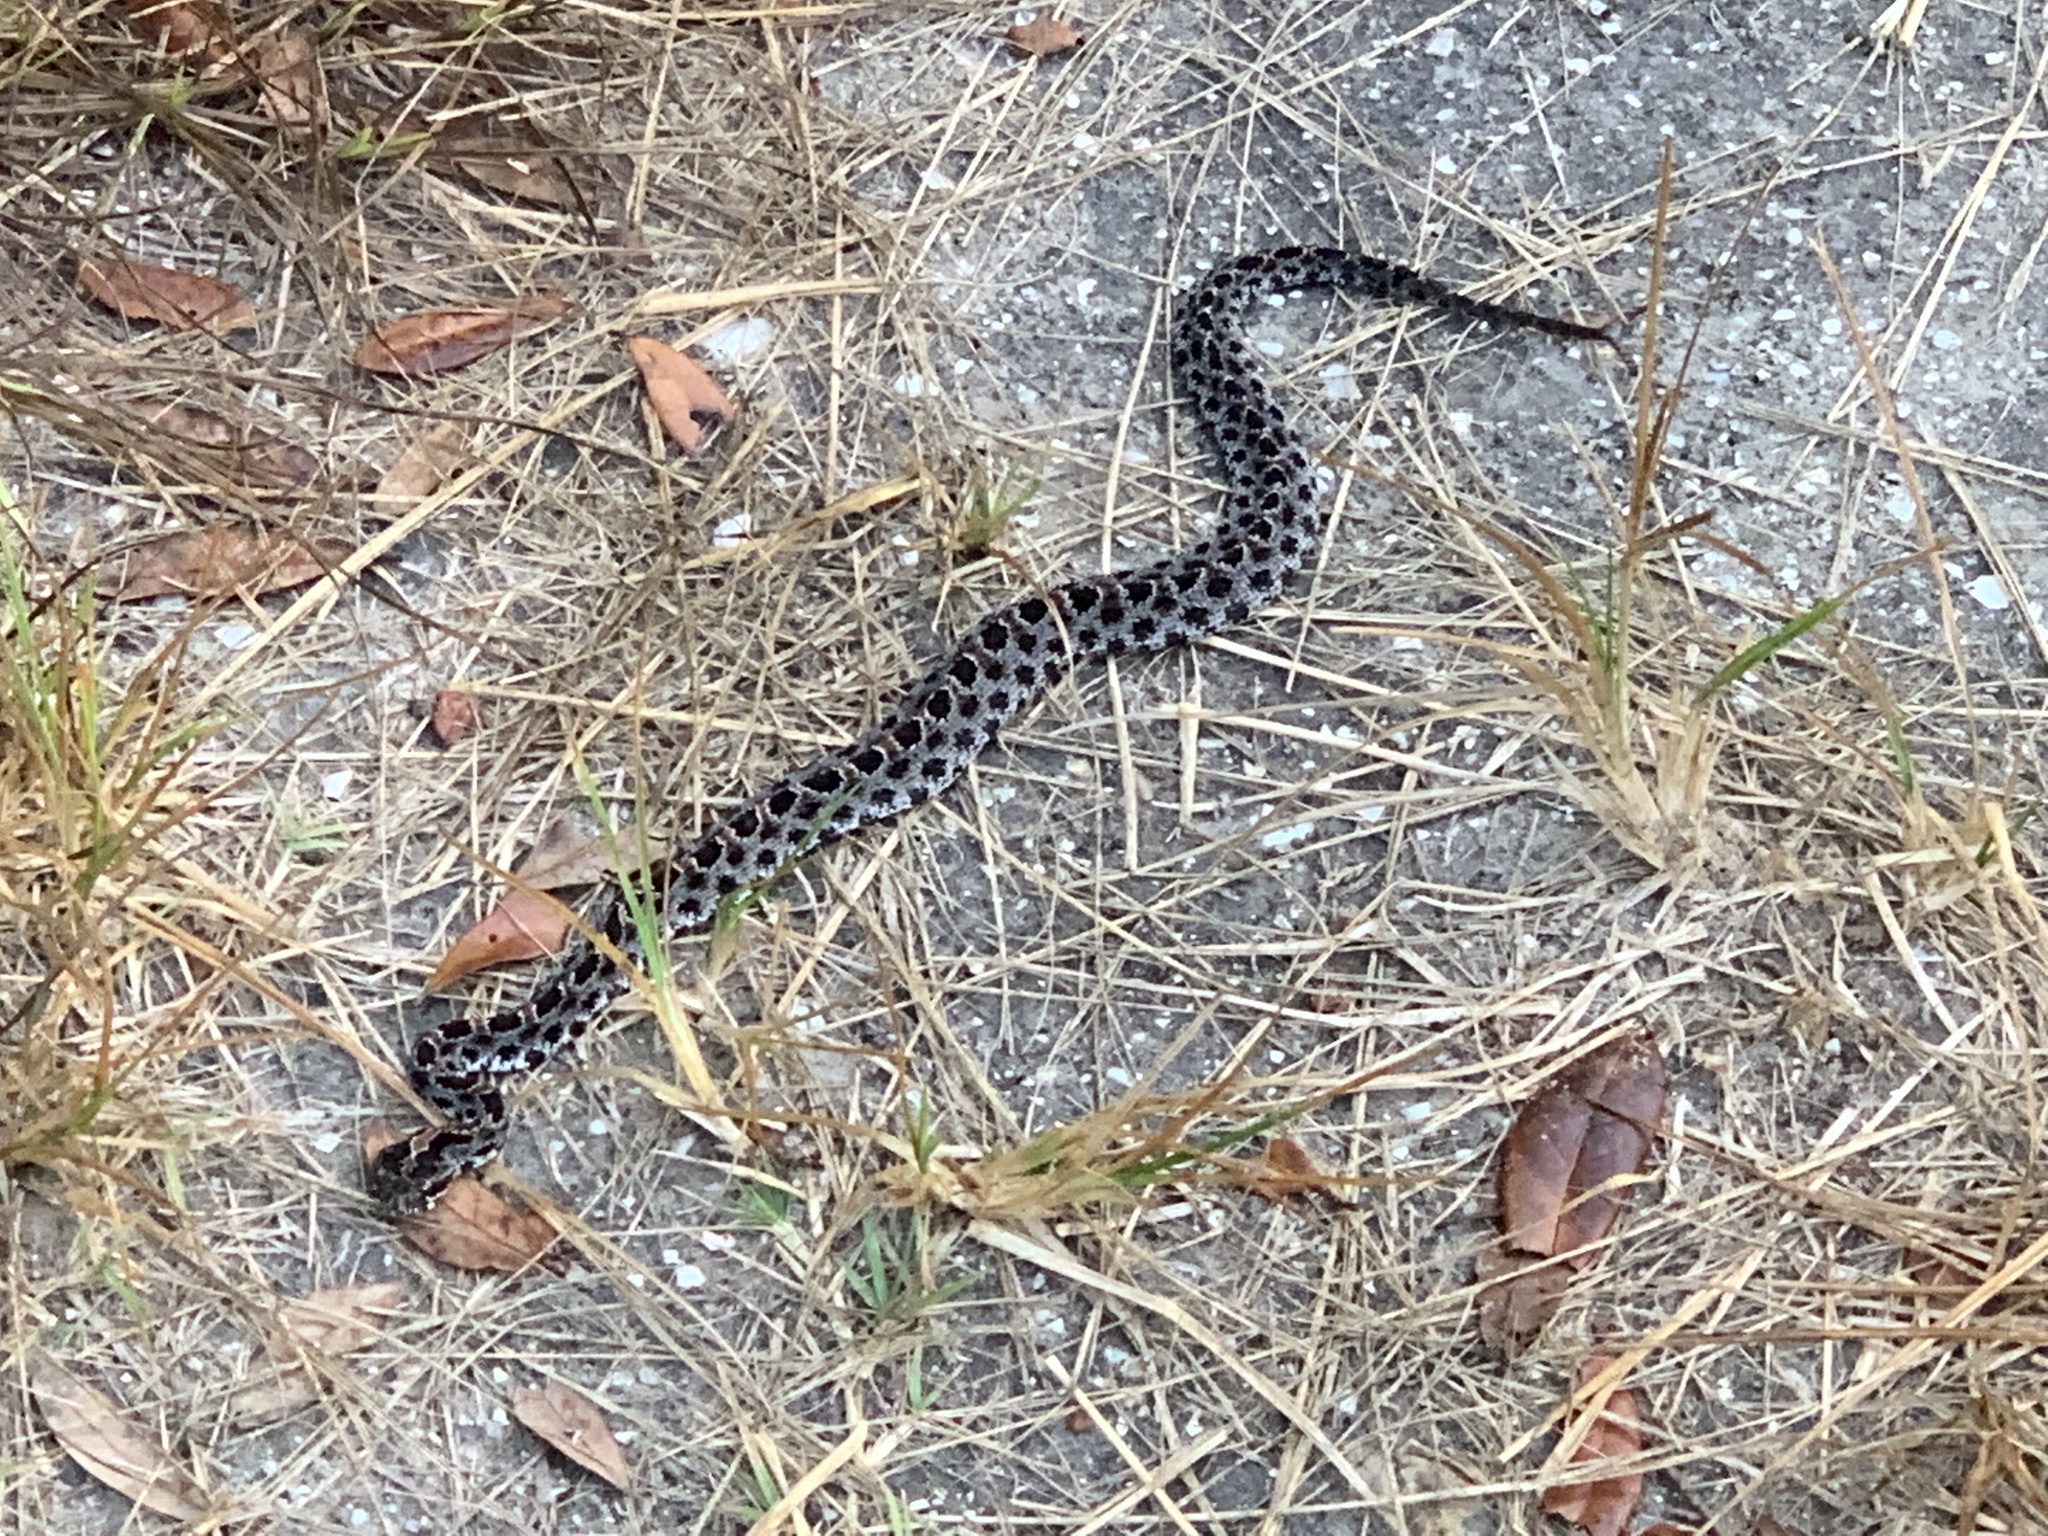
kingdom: Animalia
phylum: Chordata
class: Squamata
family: Viperidae
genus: Sistrurus
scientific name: Sistrurus miliarius
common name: Pygmy rattlesnake
